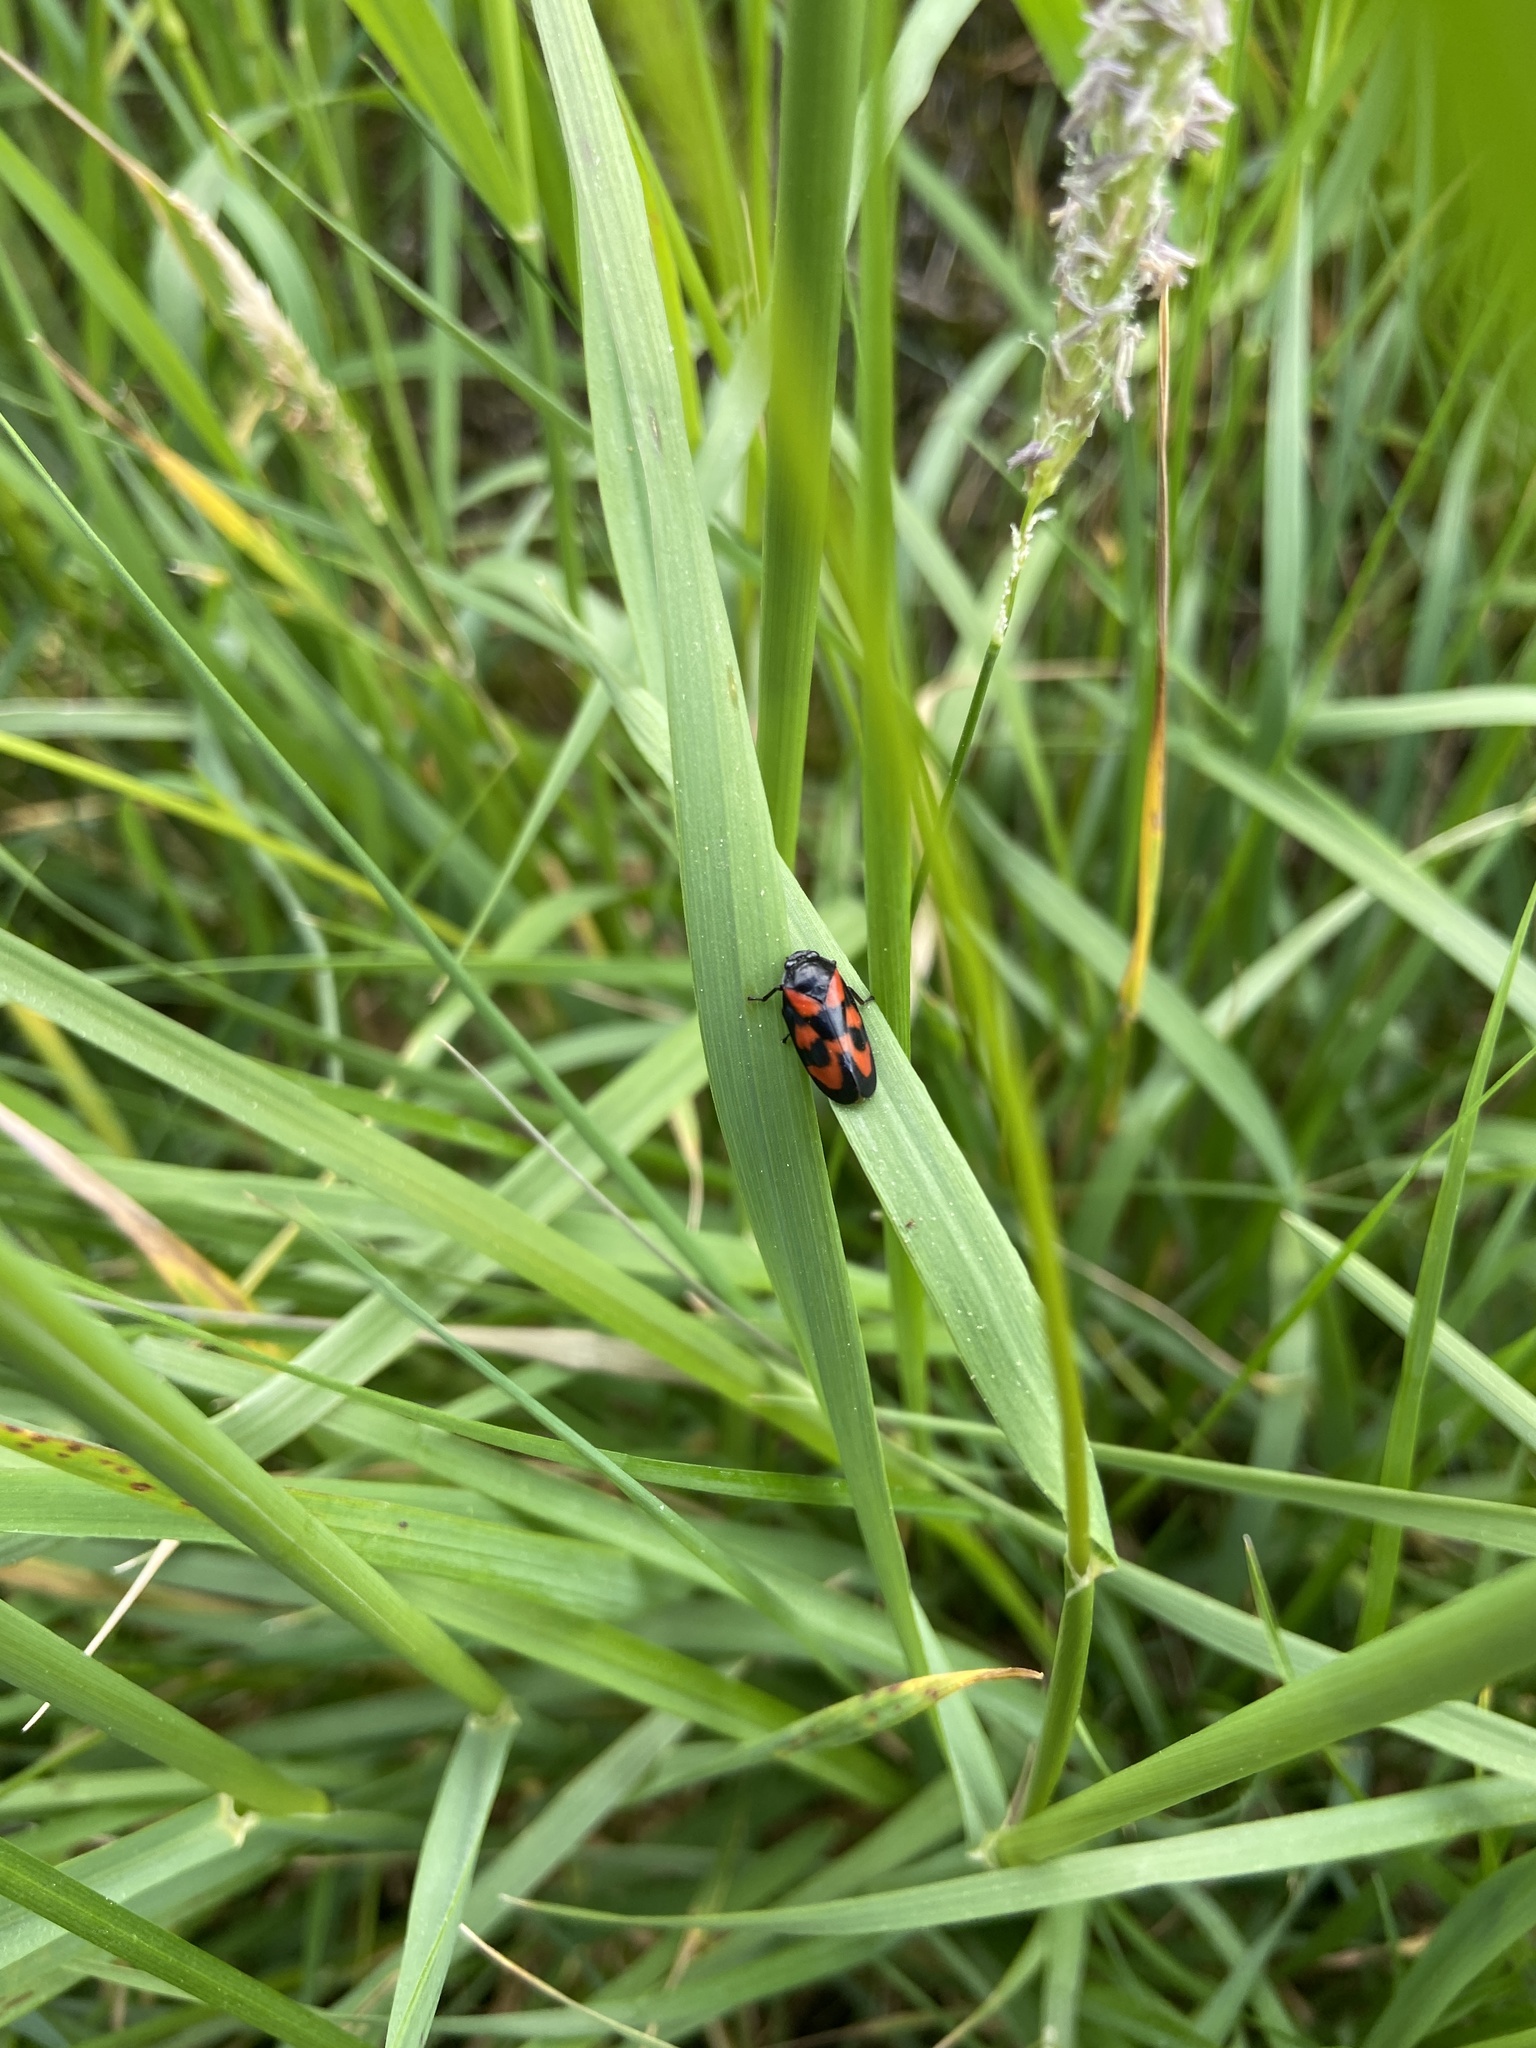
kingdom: Animalia
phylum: Arthropoda
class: Insecta
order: Hemiptera
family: Cercopidae
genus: Cercopis
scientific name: Cercopis vulnerata
